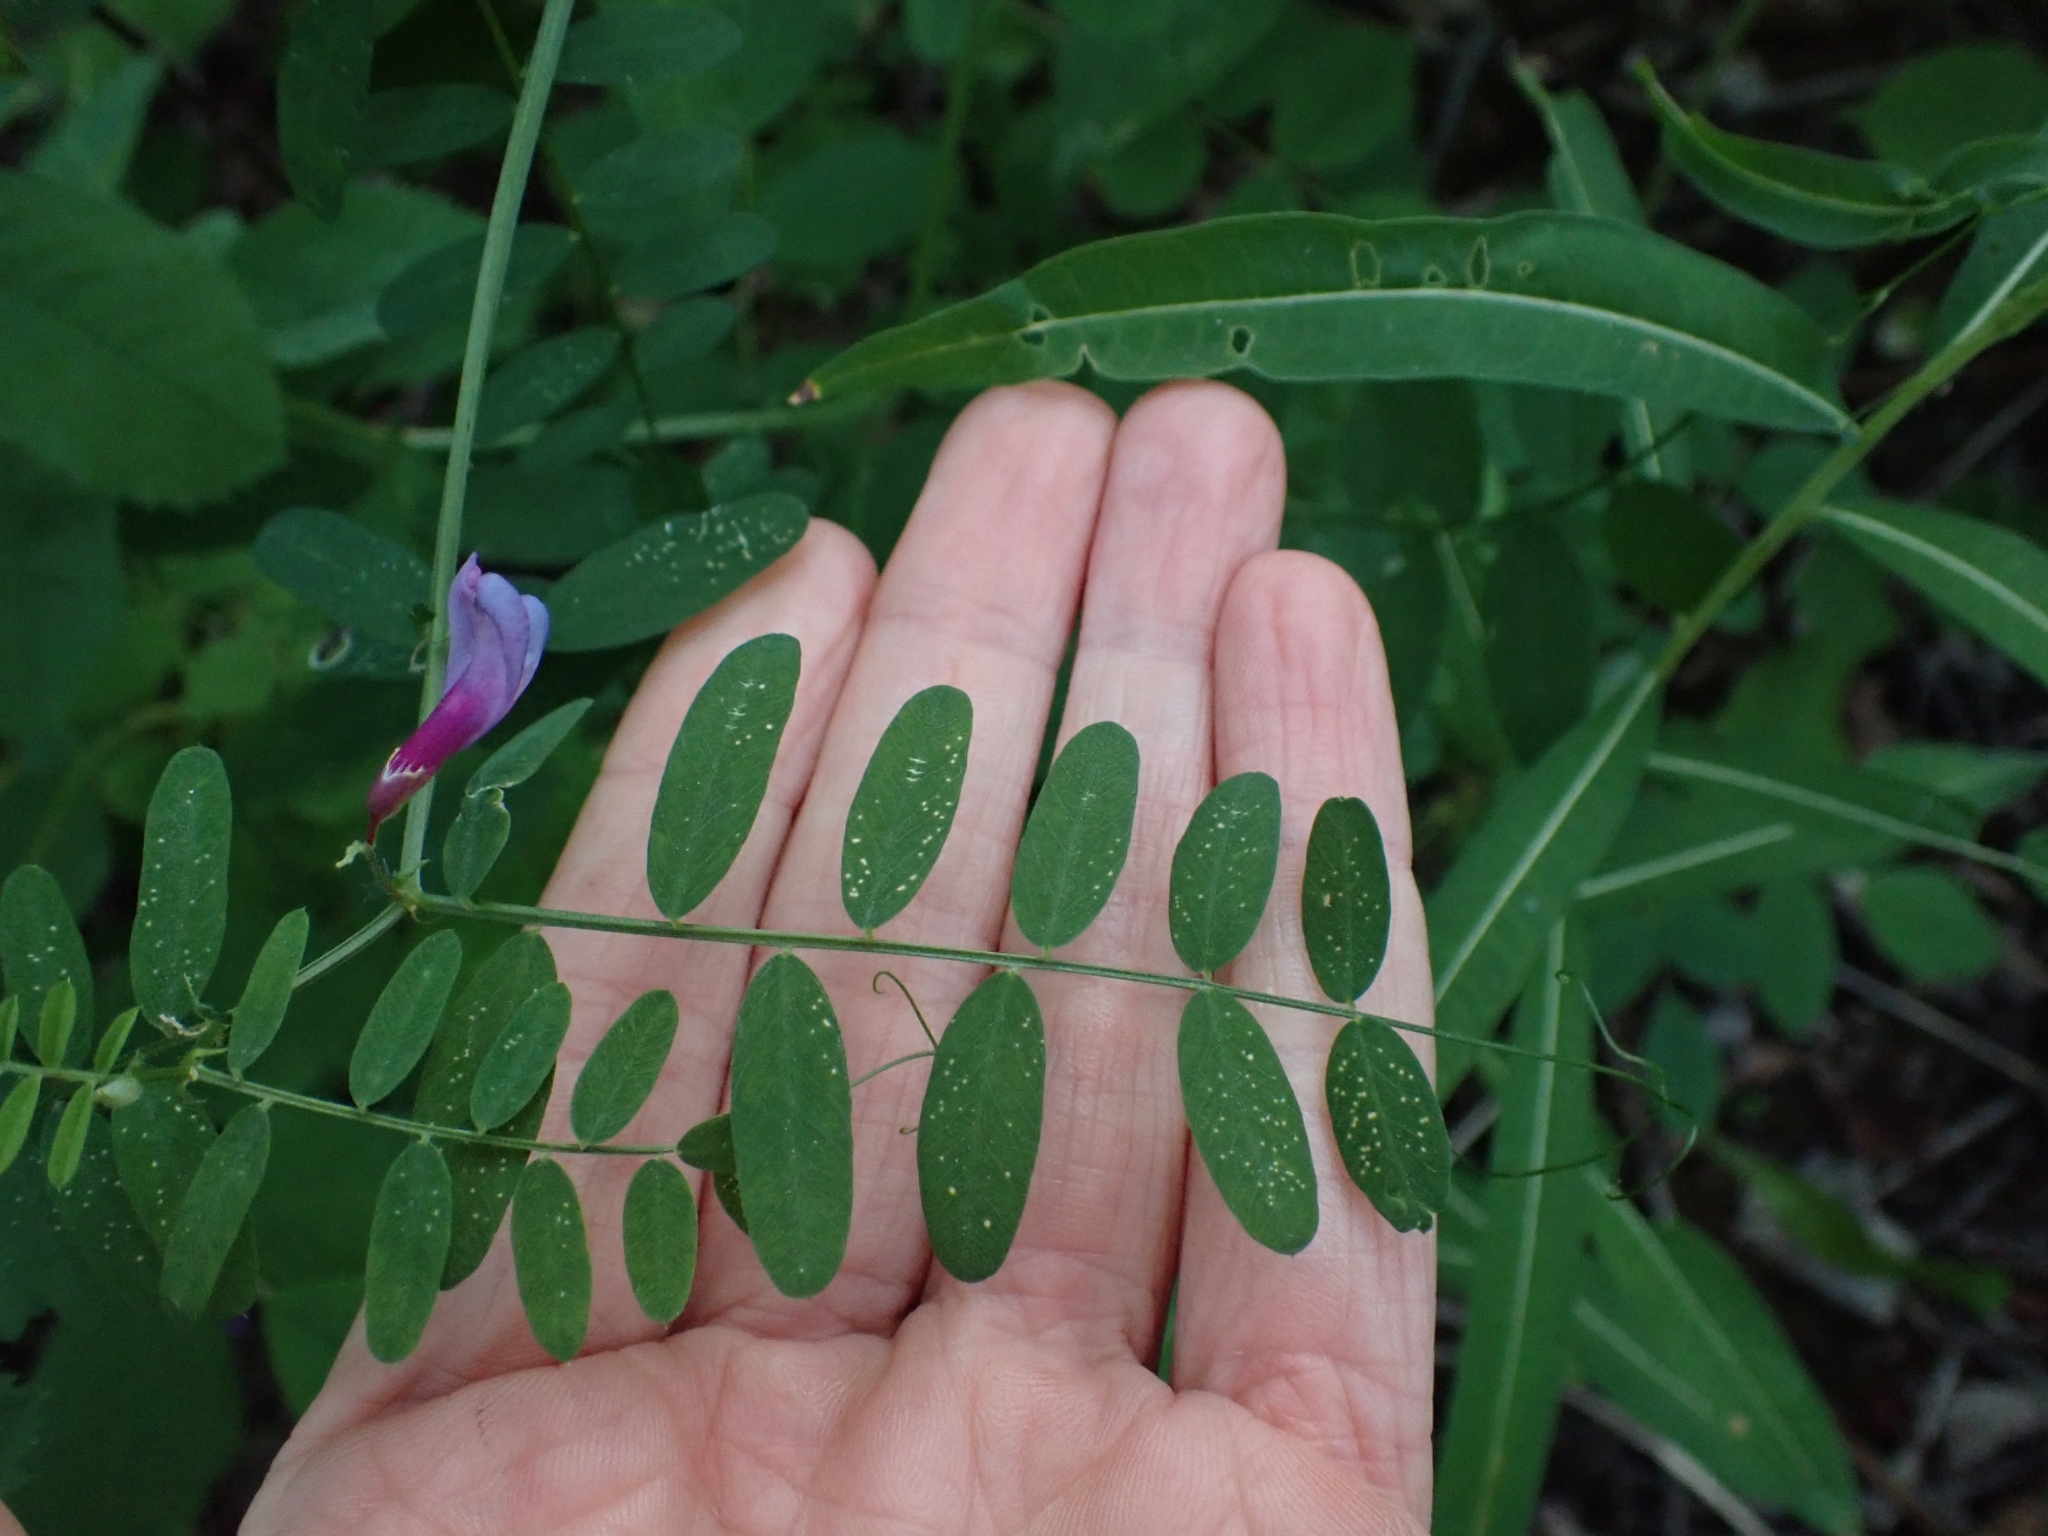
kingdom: Plantae
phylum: Tracheophyta
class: Magnoliopsida
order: Fabales
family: Fabaceae
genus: Vicia
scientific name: Vicia americana
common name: American vetch
